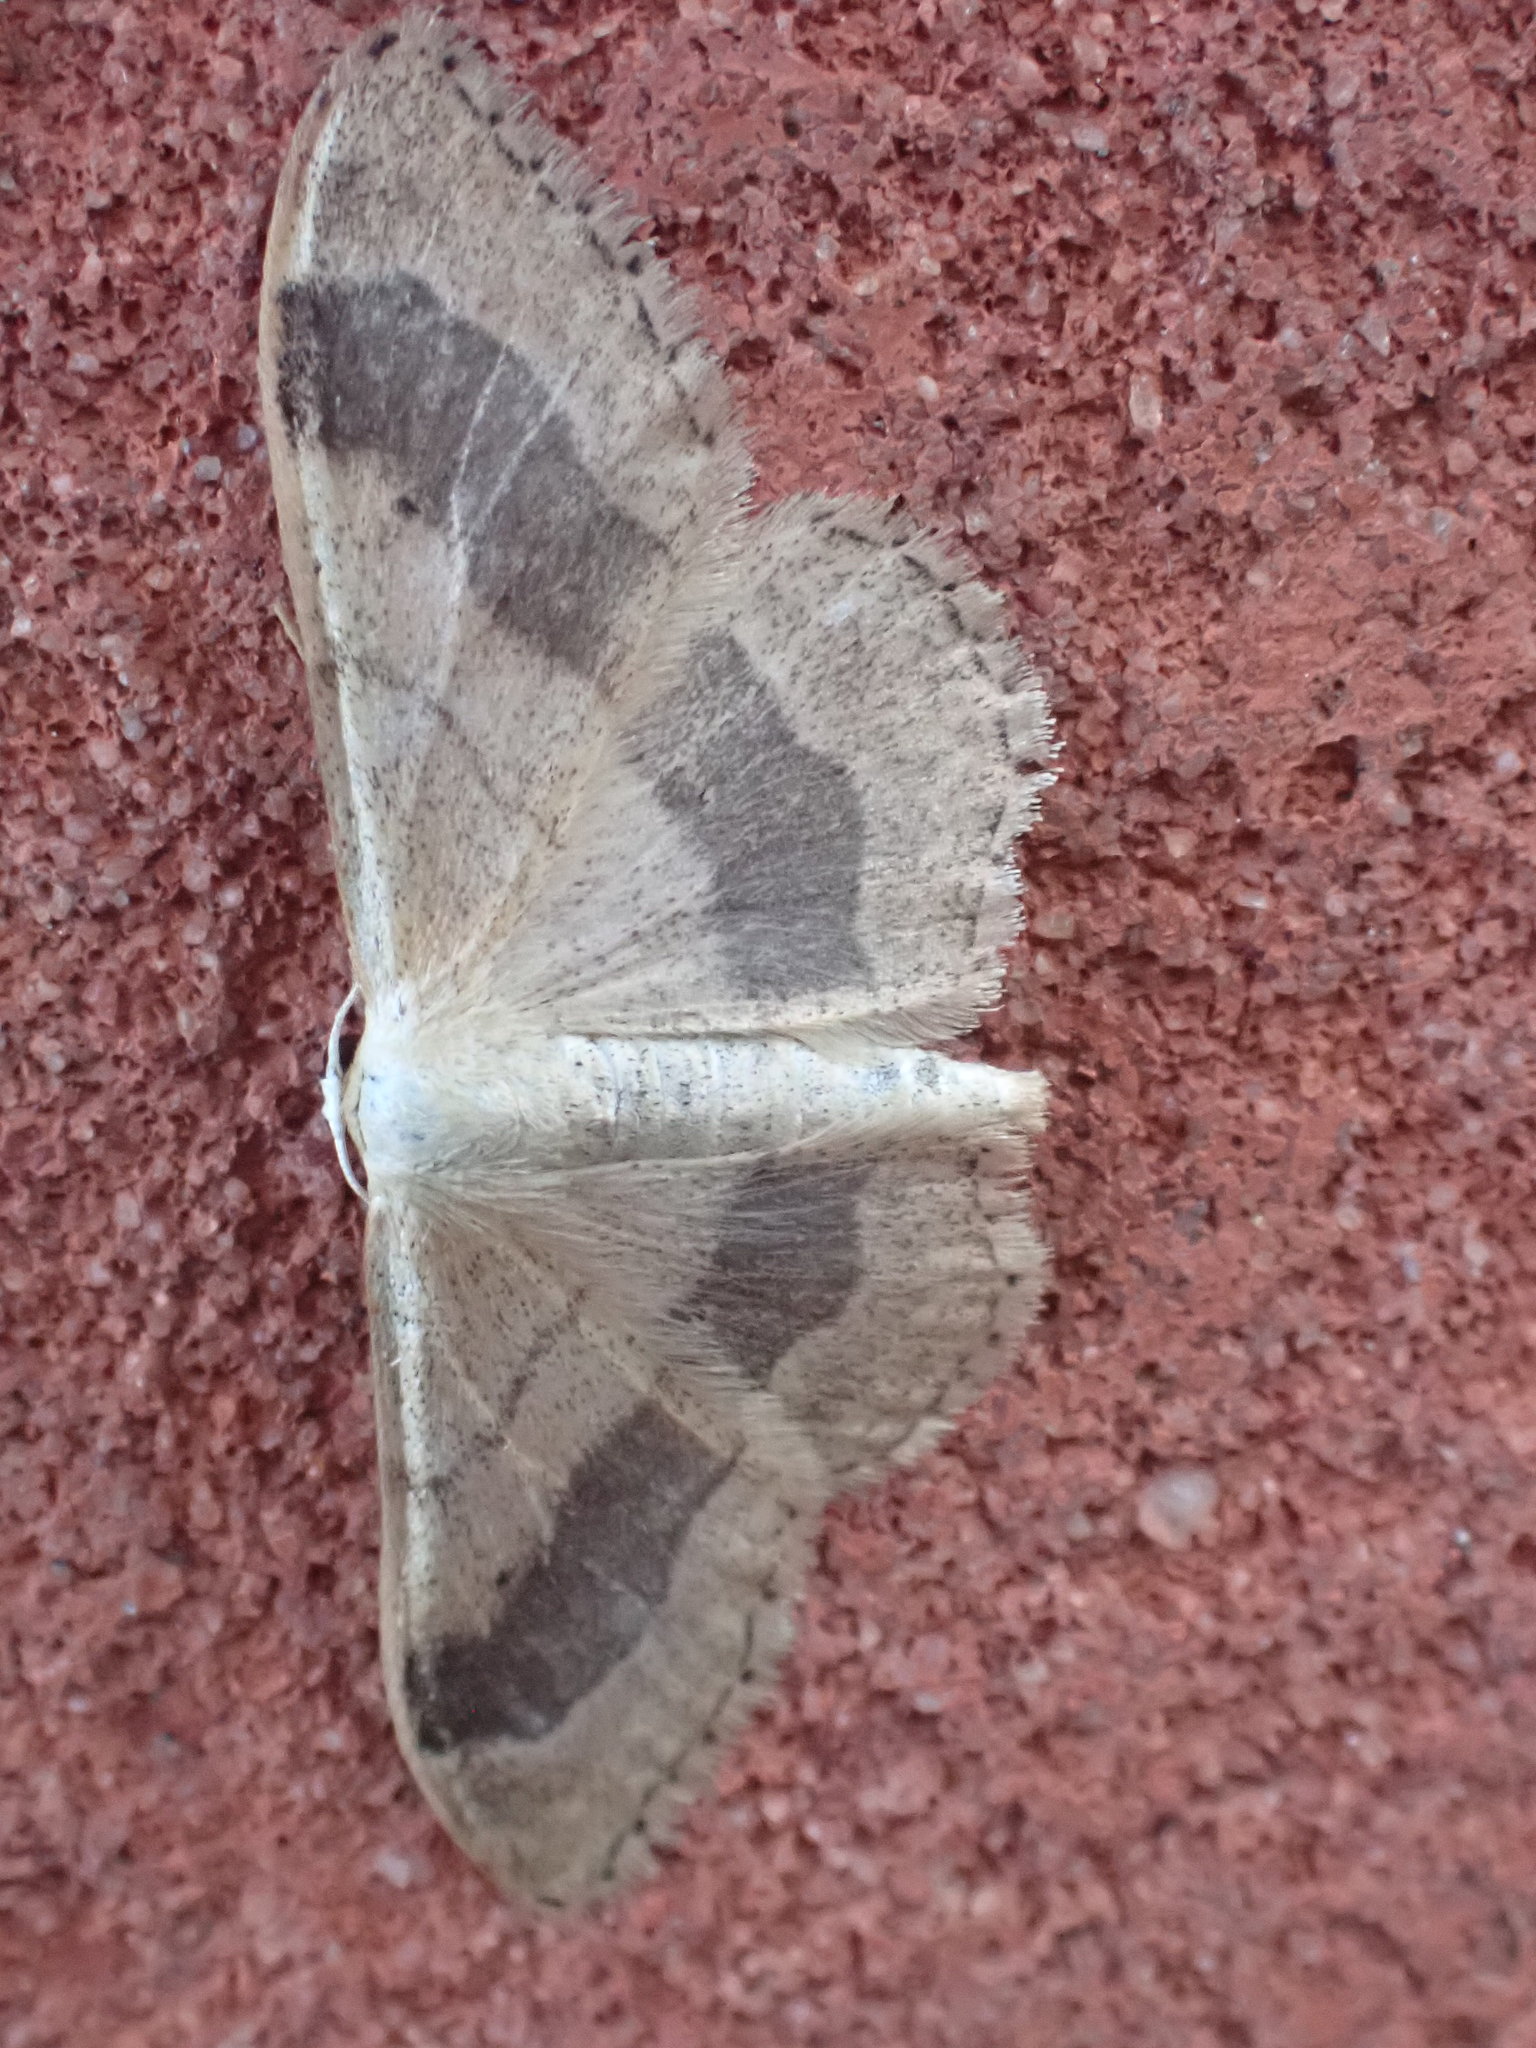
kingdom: Animalia
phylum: Arthropoda
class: Insecta
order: Lepidoptera
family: Geometridae
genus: Idaea
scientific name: Idaea aversata
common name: Riband wave
